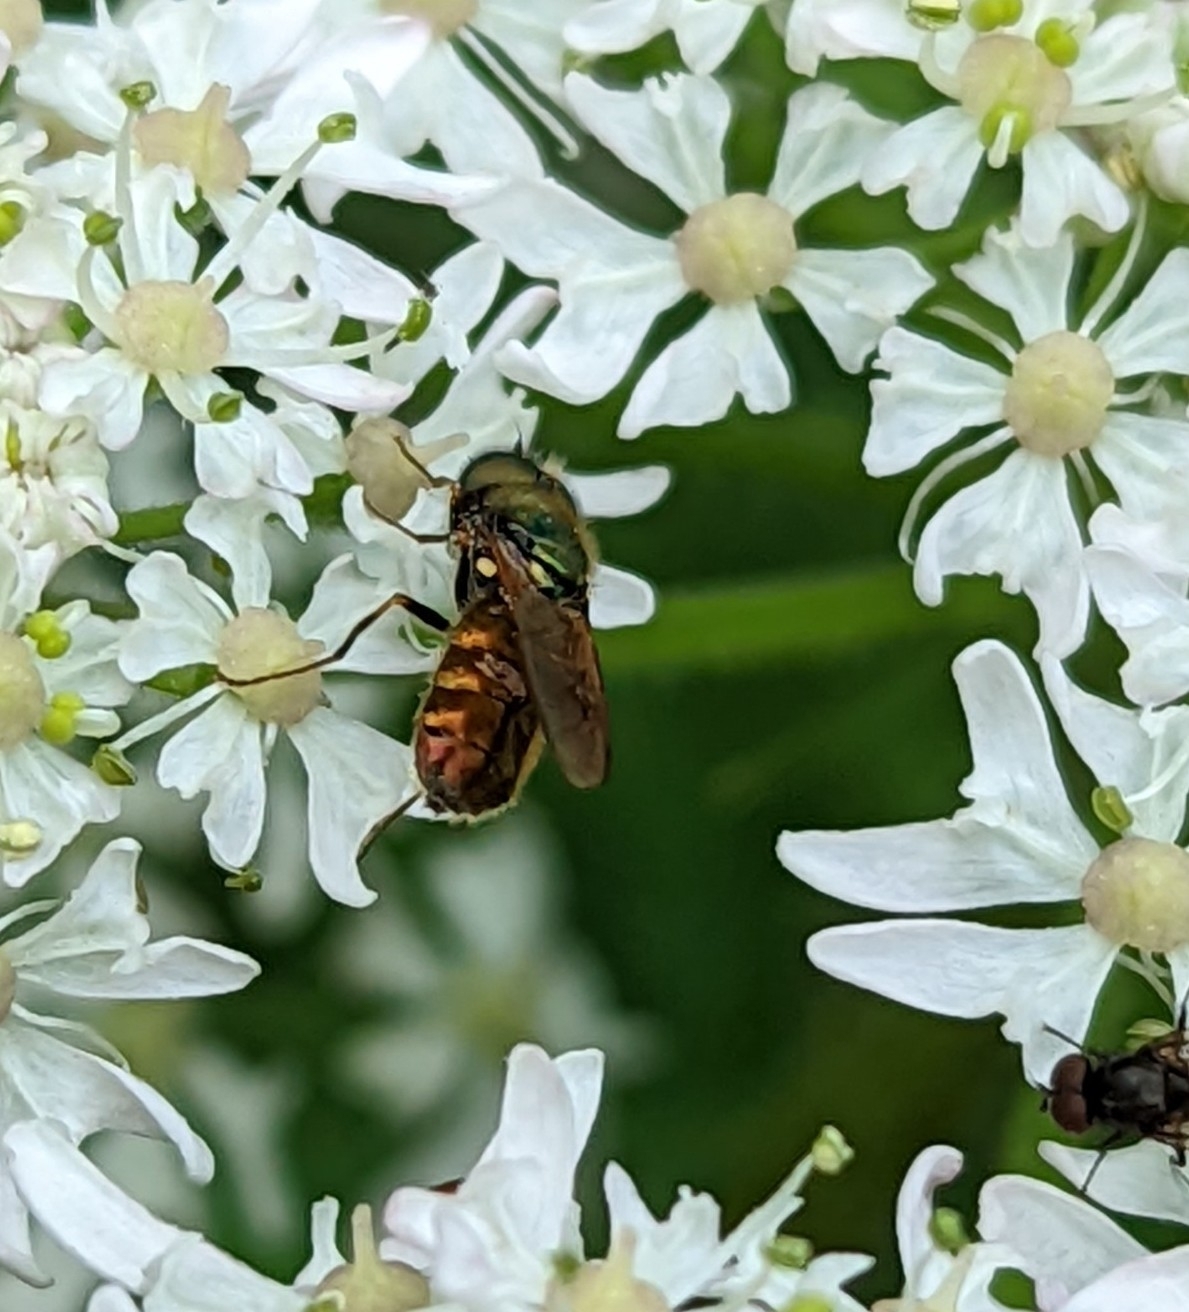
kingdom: Animalia
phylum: Arthropoda
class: Insecta
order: Diptera
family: Stratiomyidae
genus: Chloromyia
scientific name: Chloromyia formosa
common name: Soldier fly
